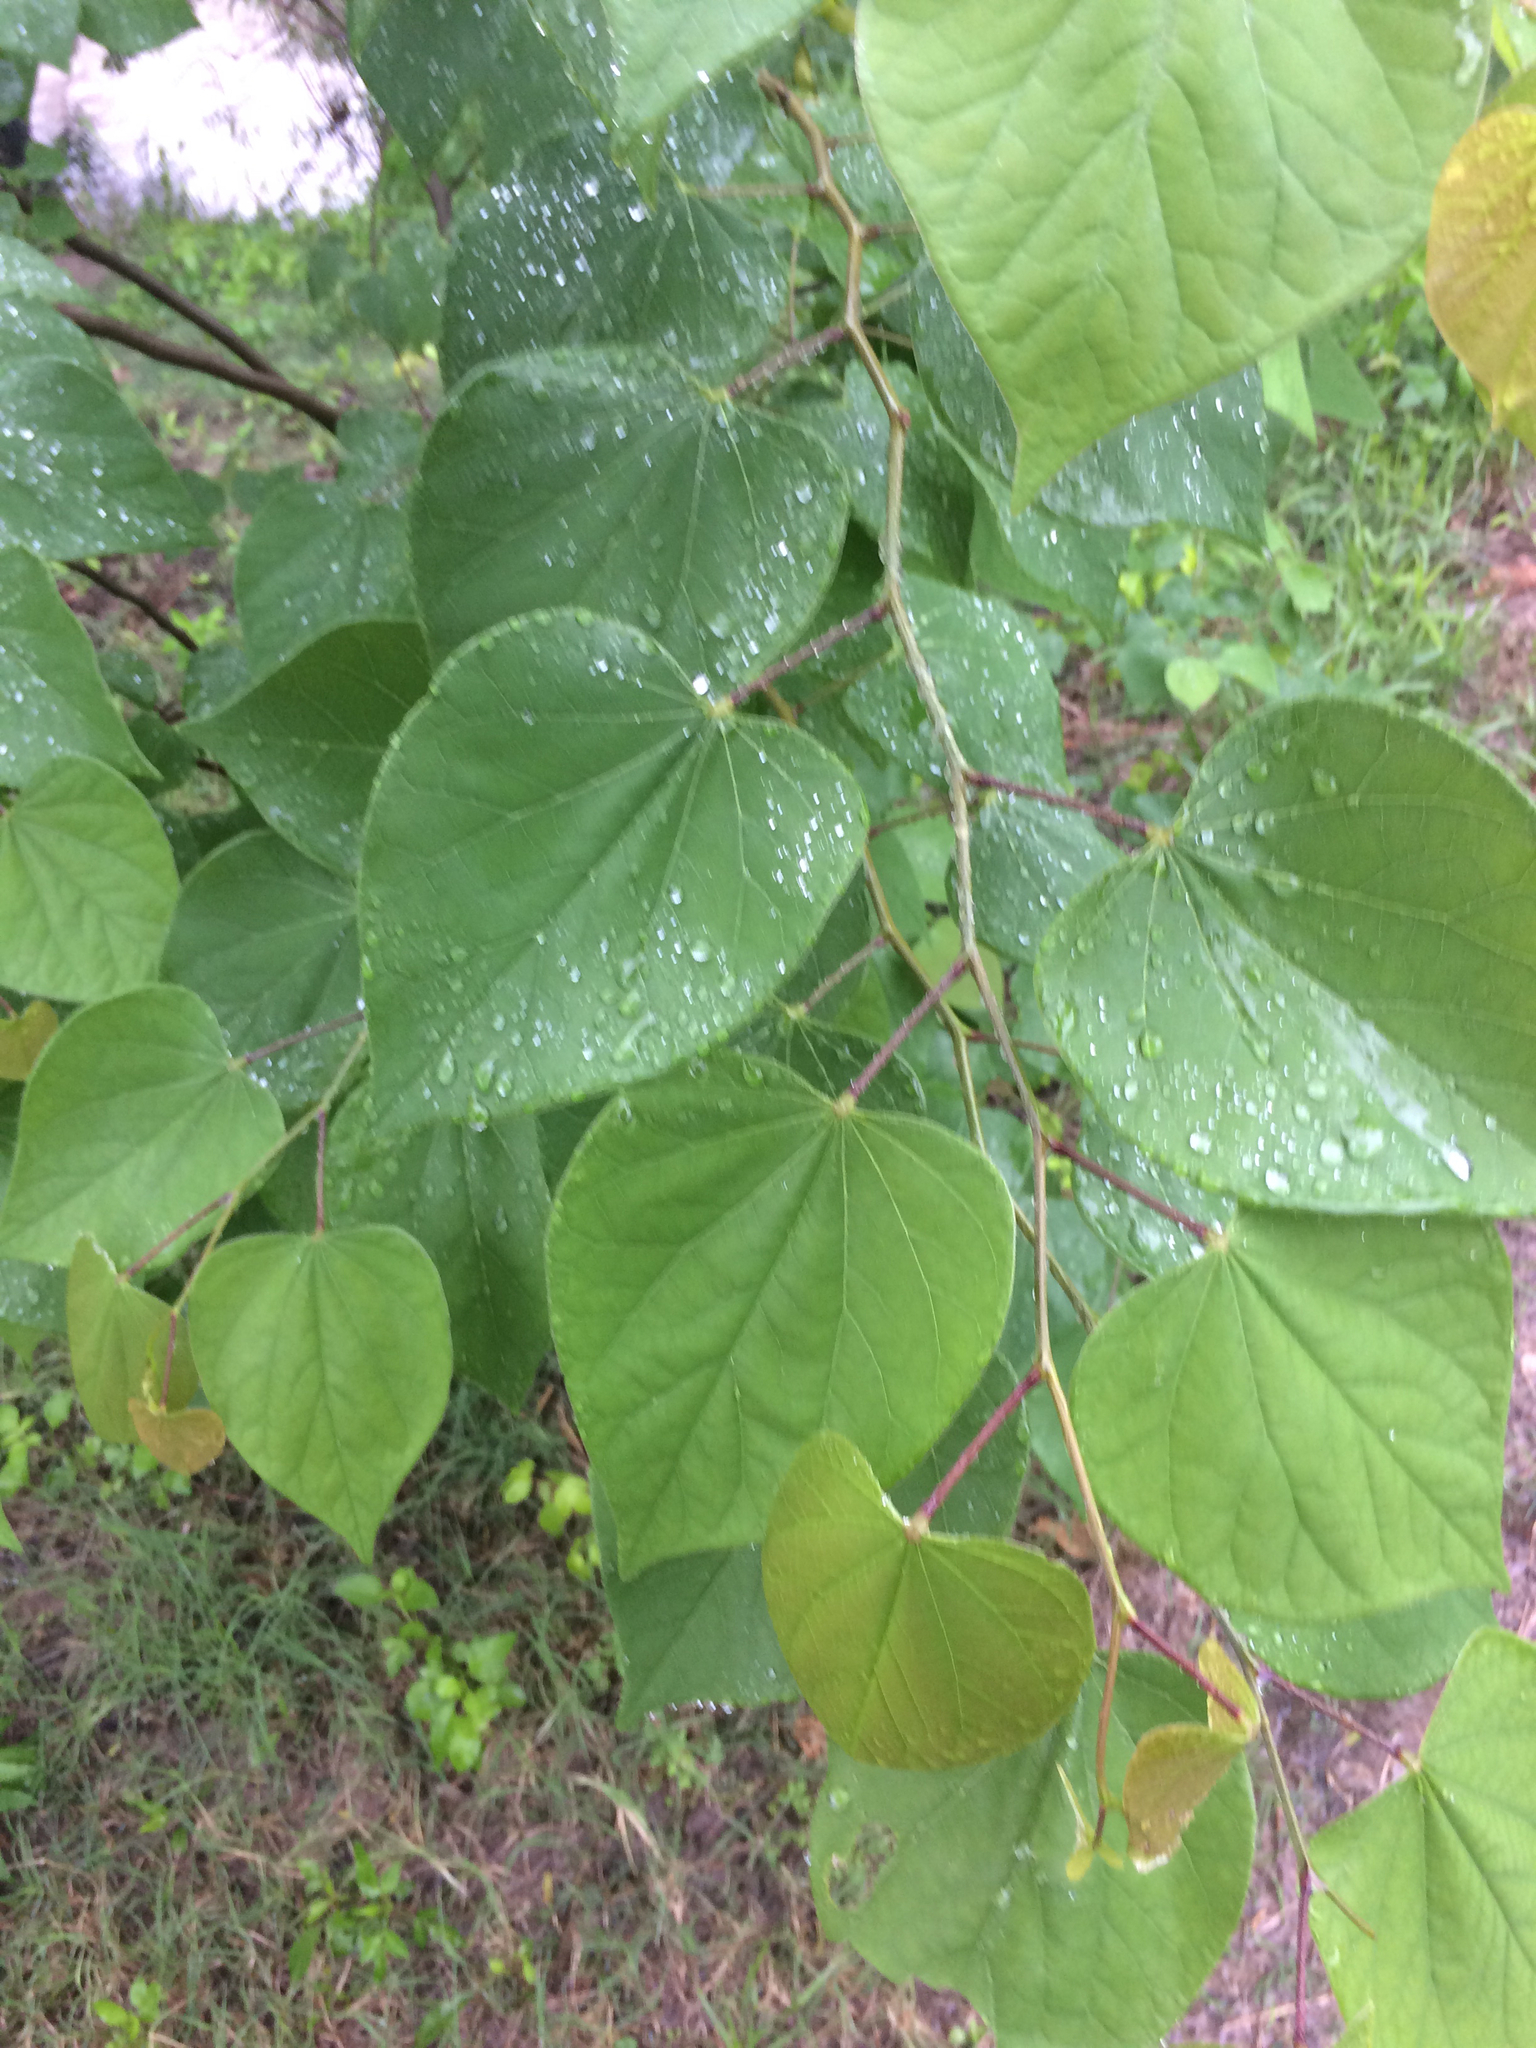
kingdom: Plantae
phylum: Tracheophyta
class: Magnoliopsida
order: Fabales
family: Fabaceae
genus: Cercis
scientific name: Cercis canadensis
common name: Eastern redbud
